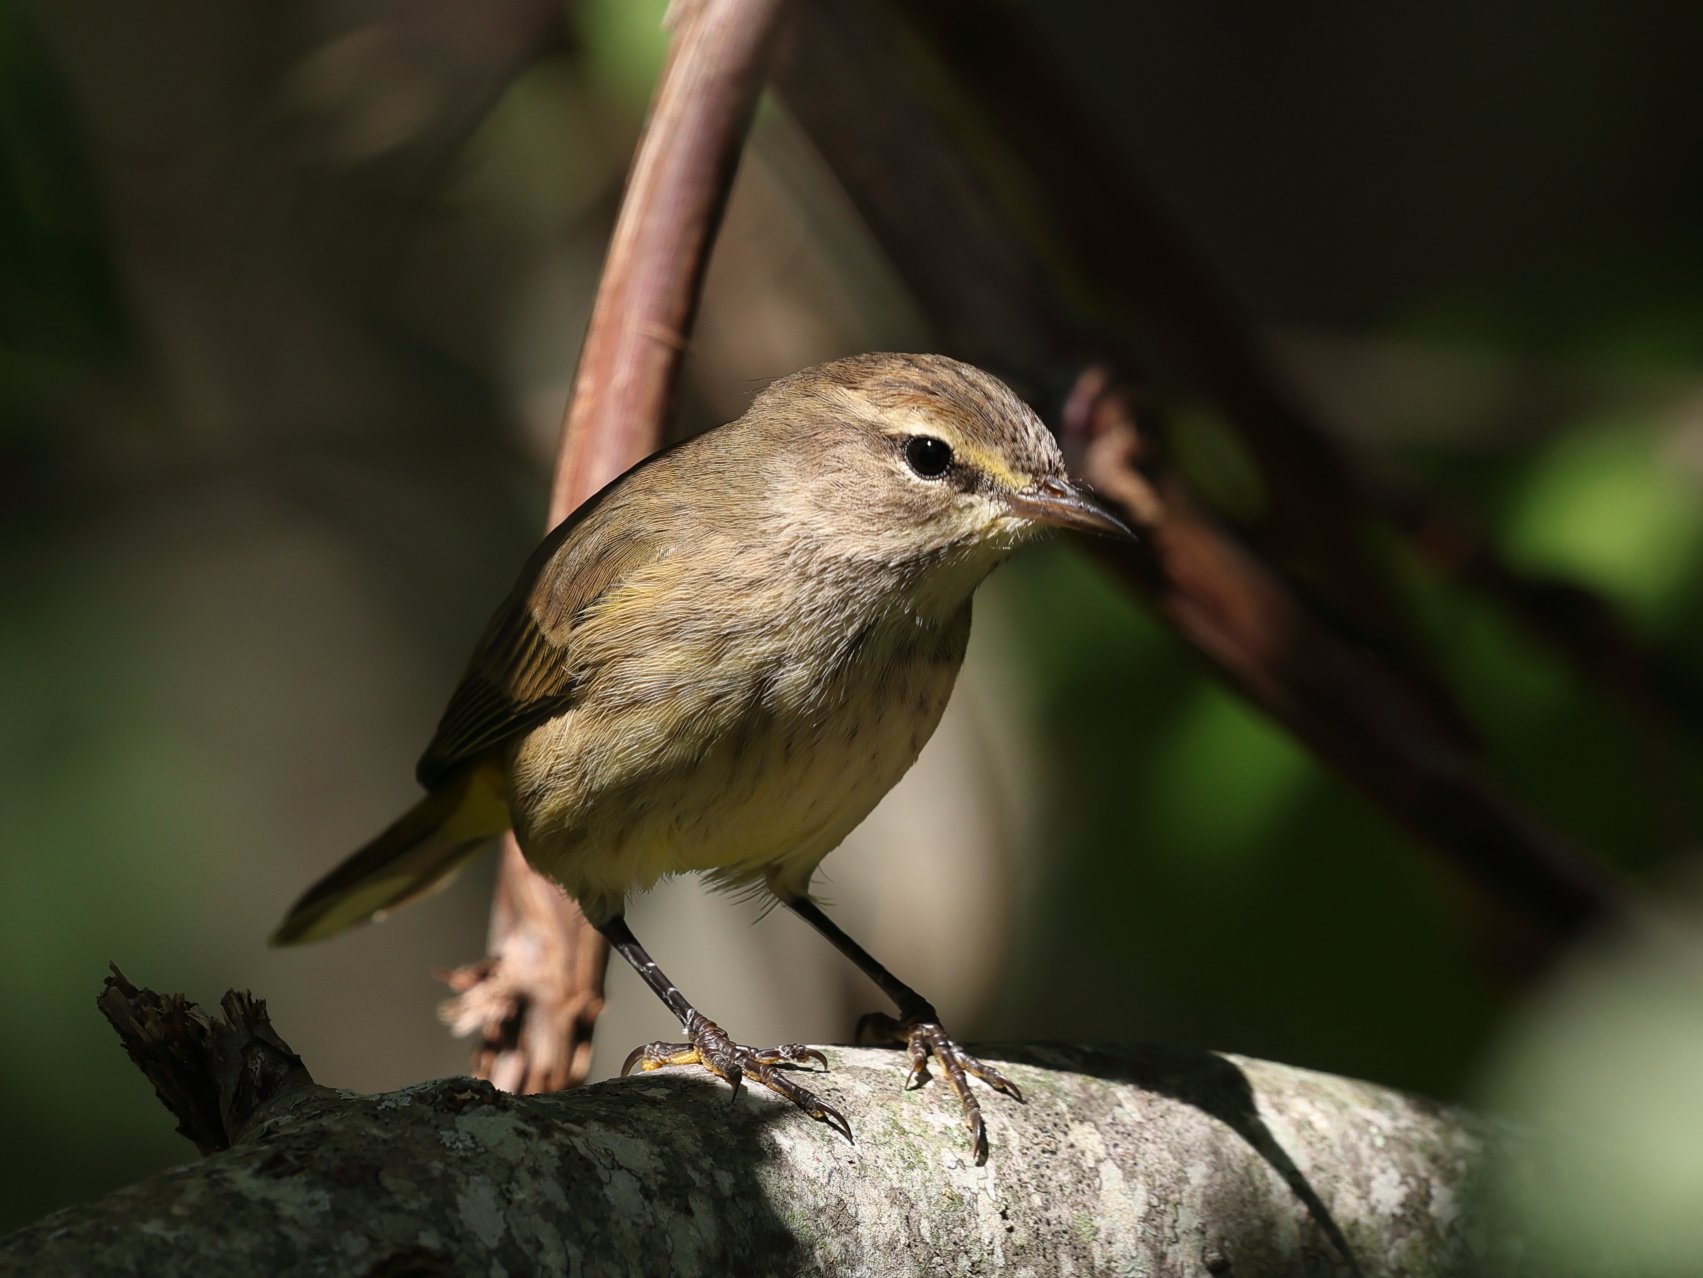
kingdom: Animalia
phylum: Chordata
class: Aves
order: Passeriformes
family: Parulidae
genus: Setophaga
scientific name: Setophaga palmarum
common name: Palm warbler
